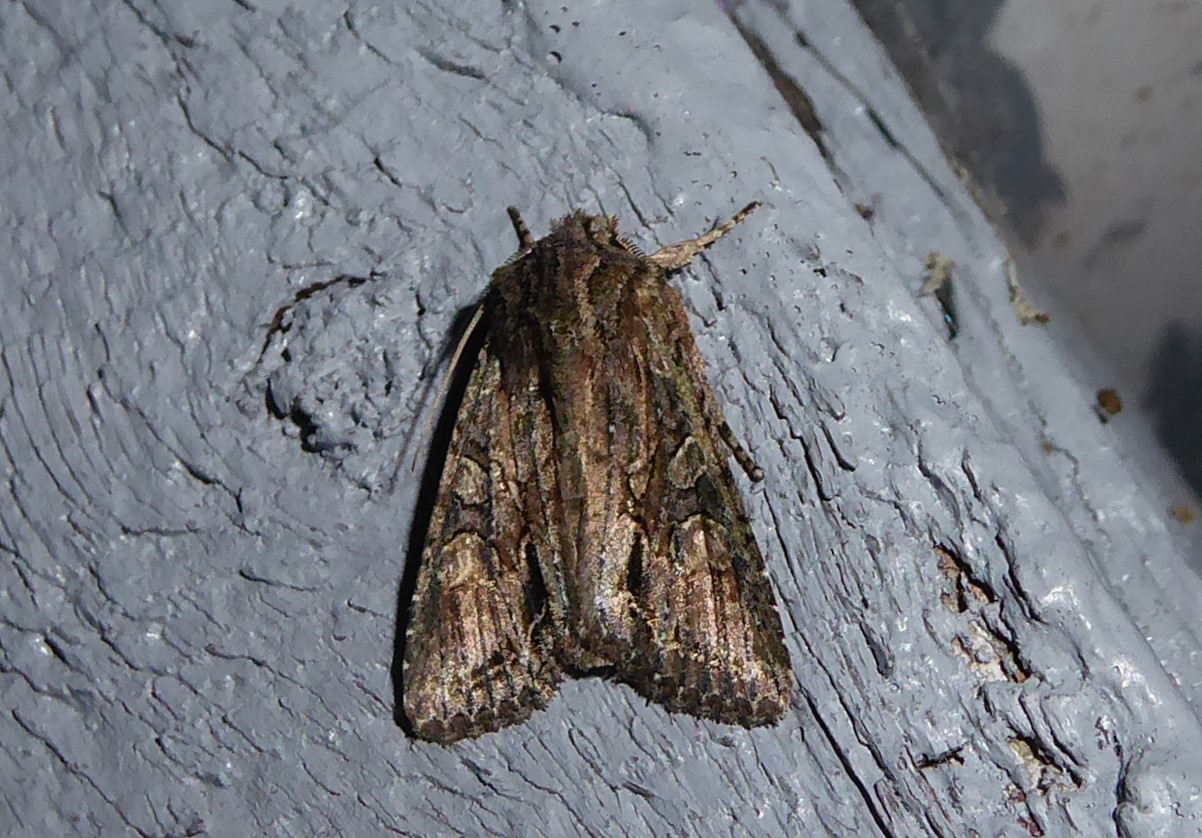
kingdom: Animalia
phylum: Arthropoda
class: Insecta
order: Lepidoptera
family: Noctuidae
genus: Ichneutica
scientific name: Ichneutica mutans
